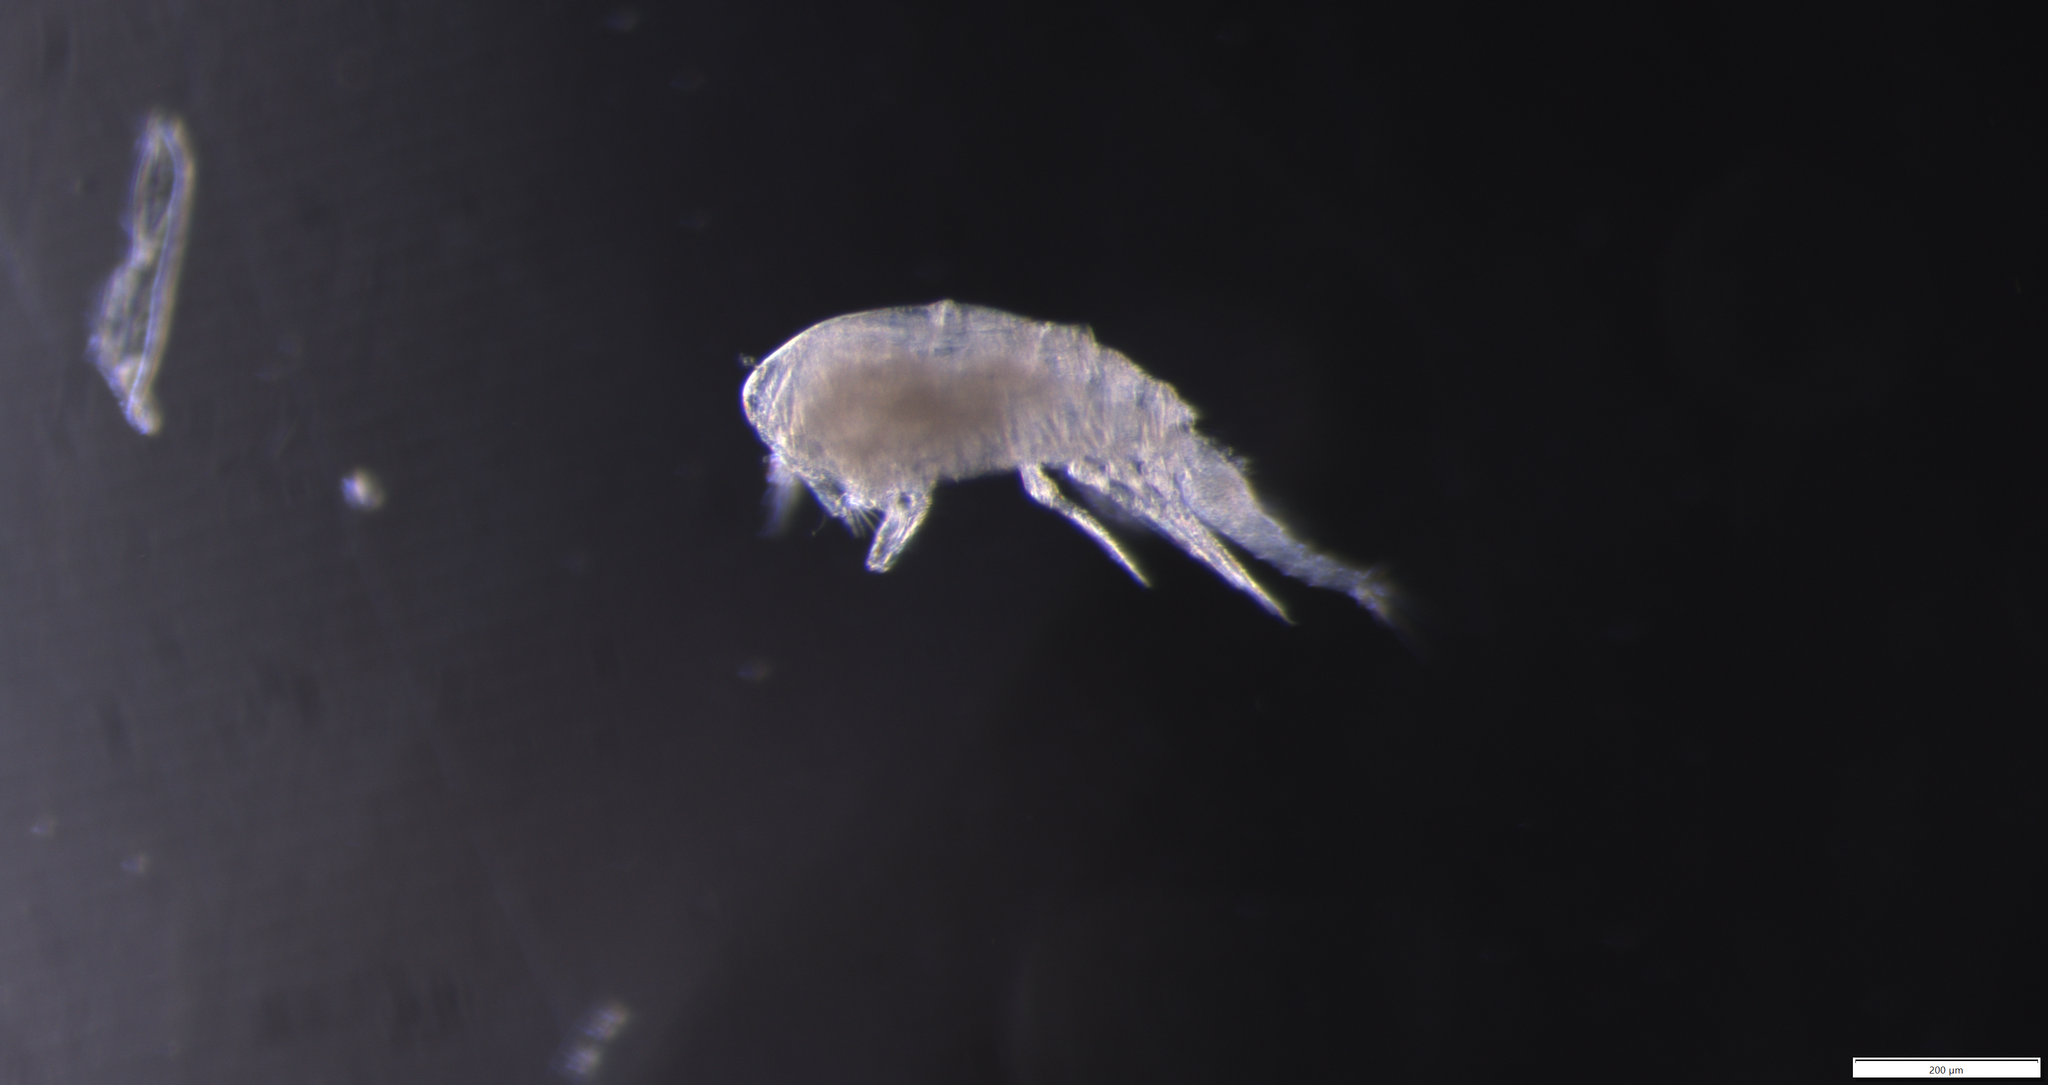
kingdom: Animalia
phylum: Arthropoda
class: Copepoda
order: Cyclopoida
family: Oncaeidae
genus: Triconia
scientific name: Triconia borealis
